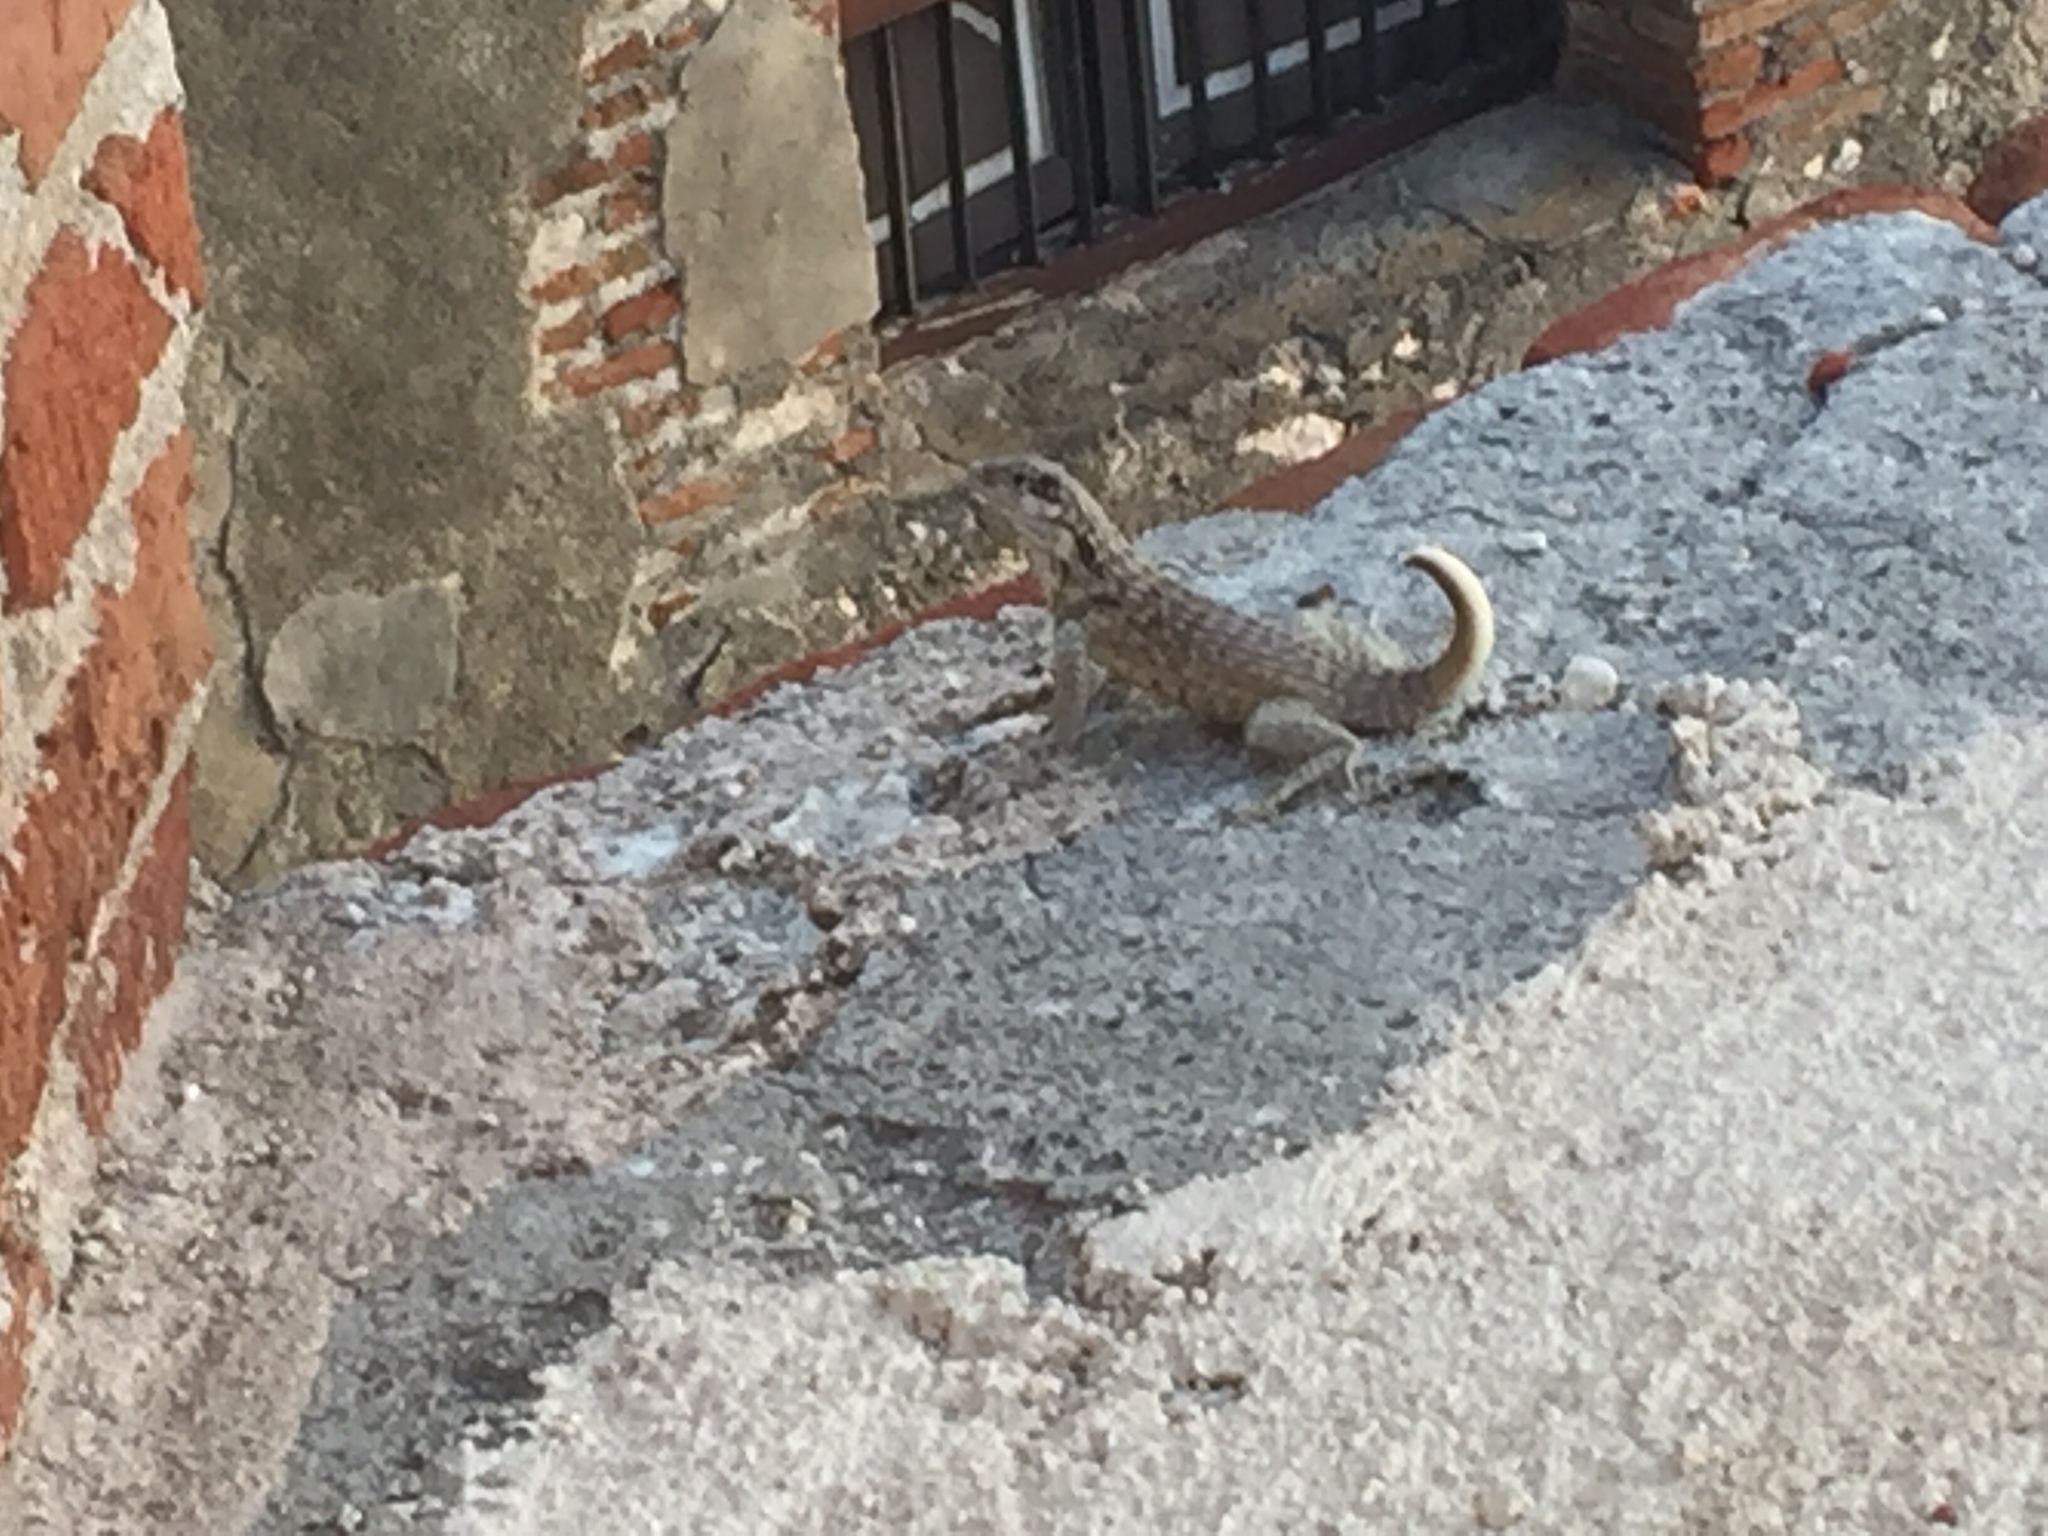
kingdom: Animalia
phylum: Chordata
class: Squamata
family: Leiocephalidae
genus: Leiocephalus
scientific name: Leiocephalus carinatus
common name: Northern curly-tailed lizard
